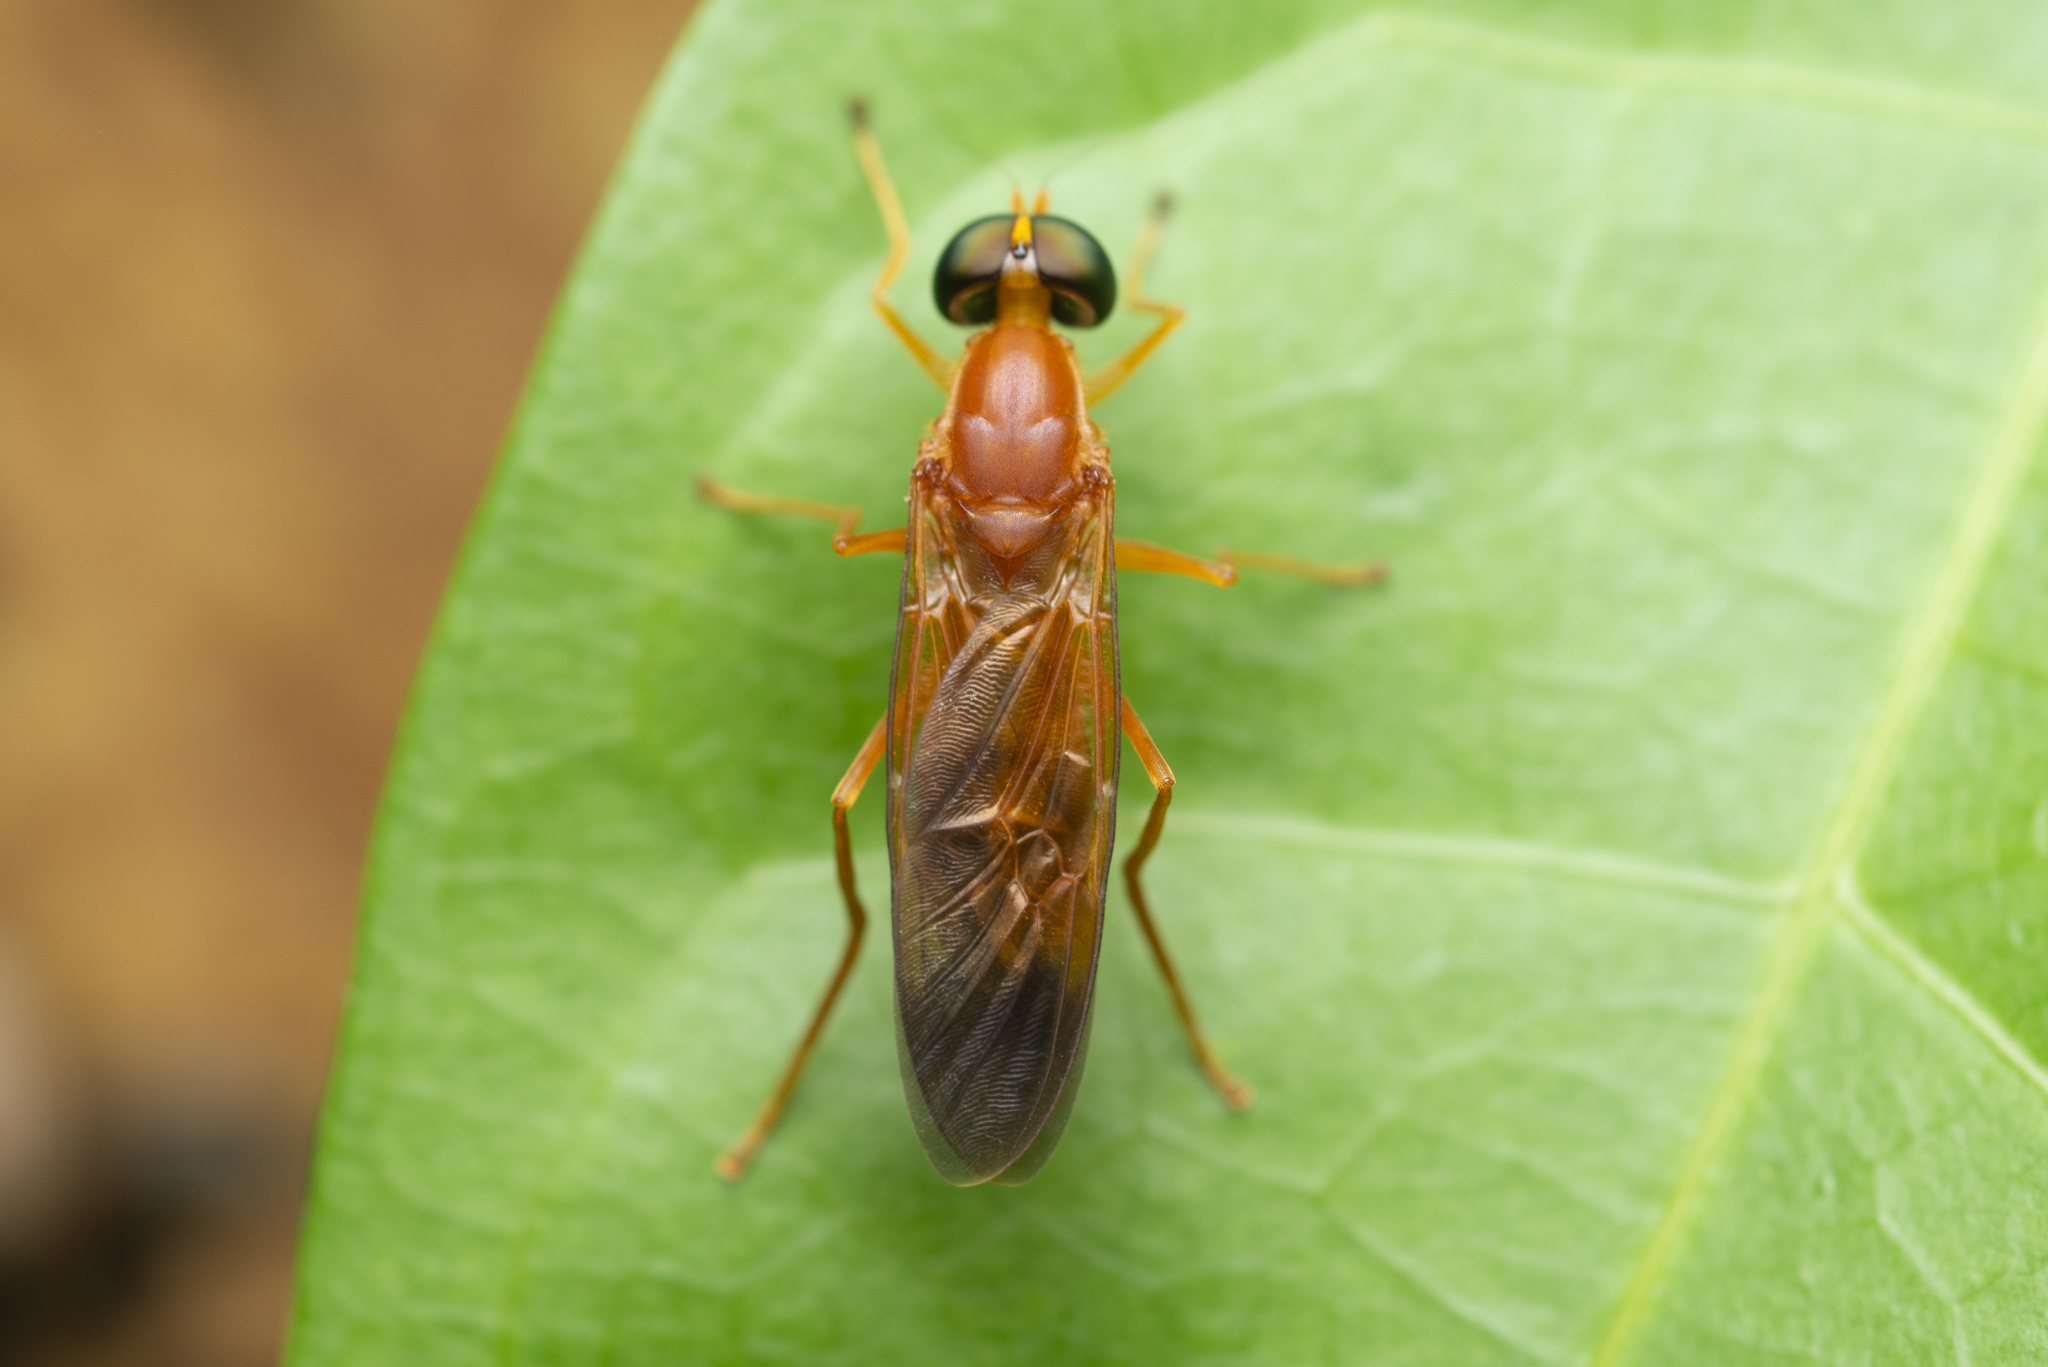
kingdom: Animalia
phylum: Arthropoda
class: Insecta
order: Diptera
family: Stratiomyidae
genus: Ptecticus
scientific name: Ptecticus aurifer
